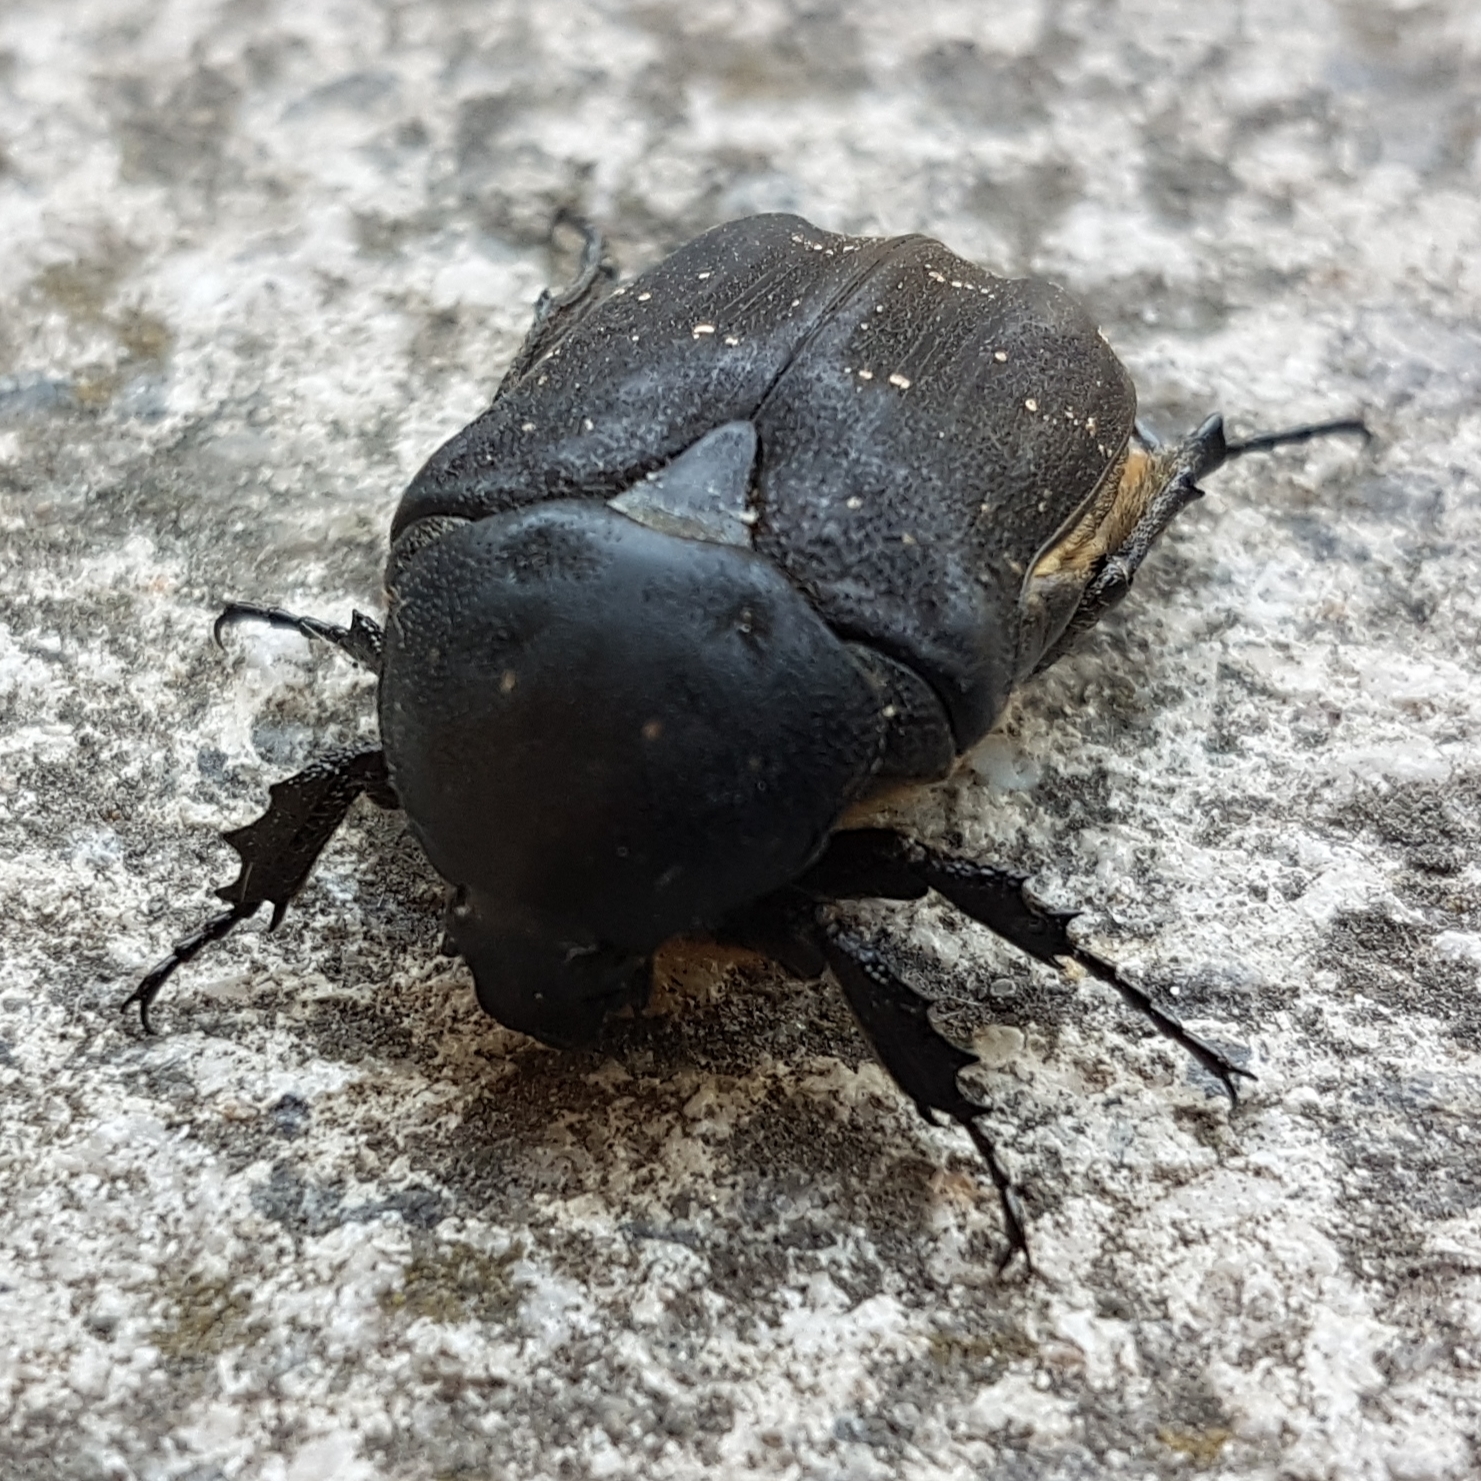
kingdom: Animalia
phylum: Arthropoda
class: Insecta
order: Coleoptera
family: Scarabaeidae
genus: Protaetia
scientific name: Protaetia morio
